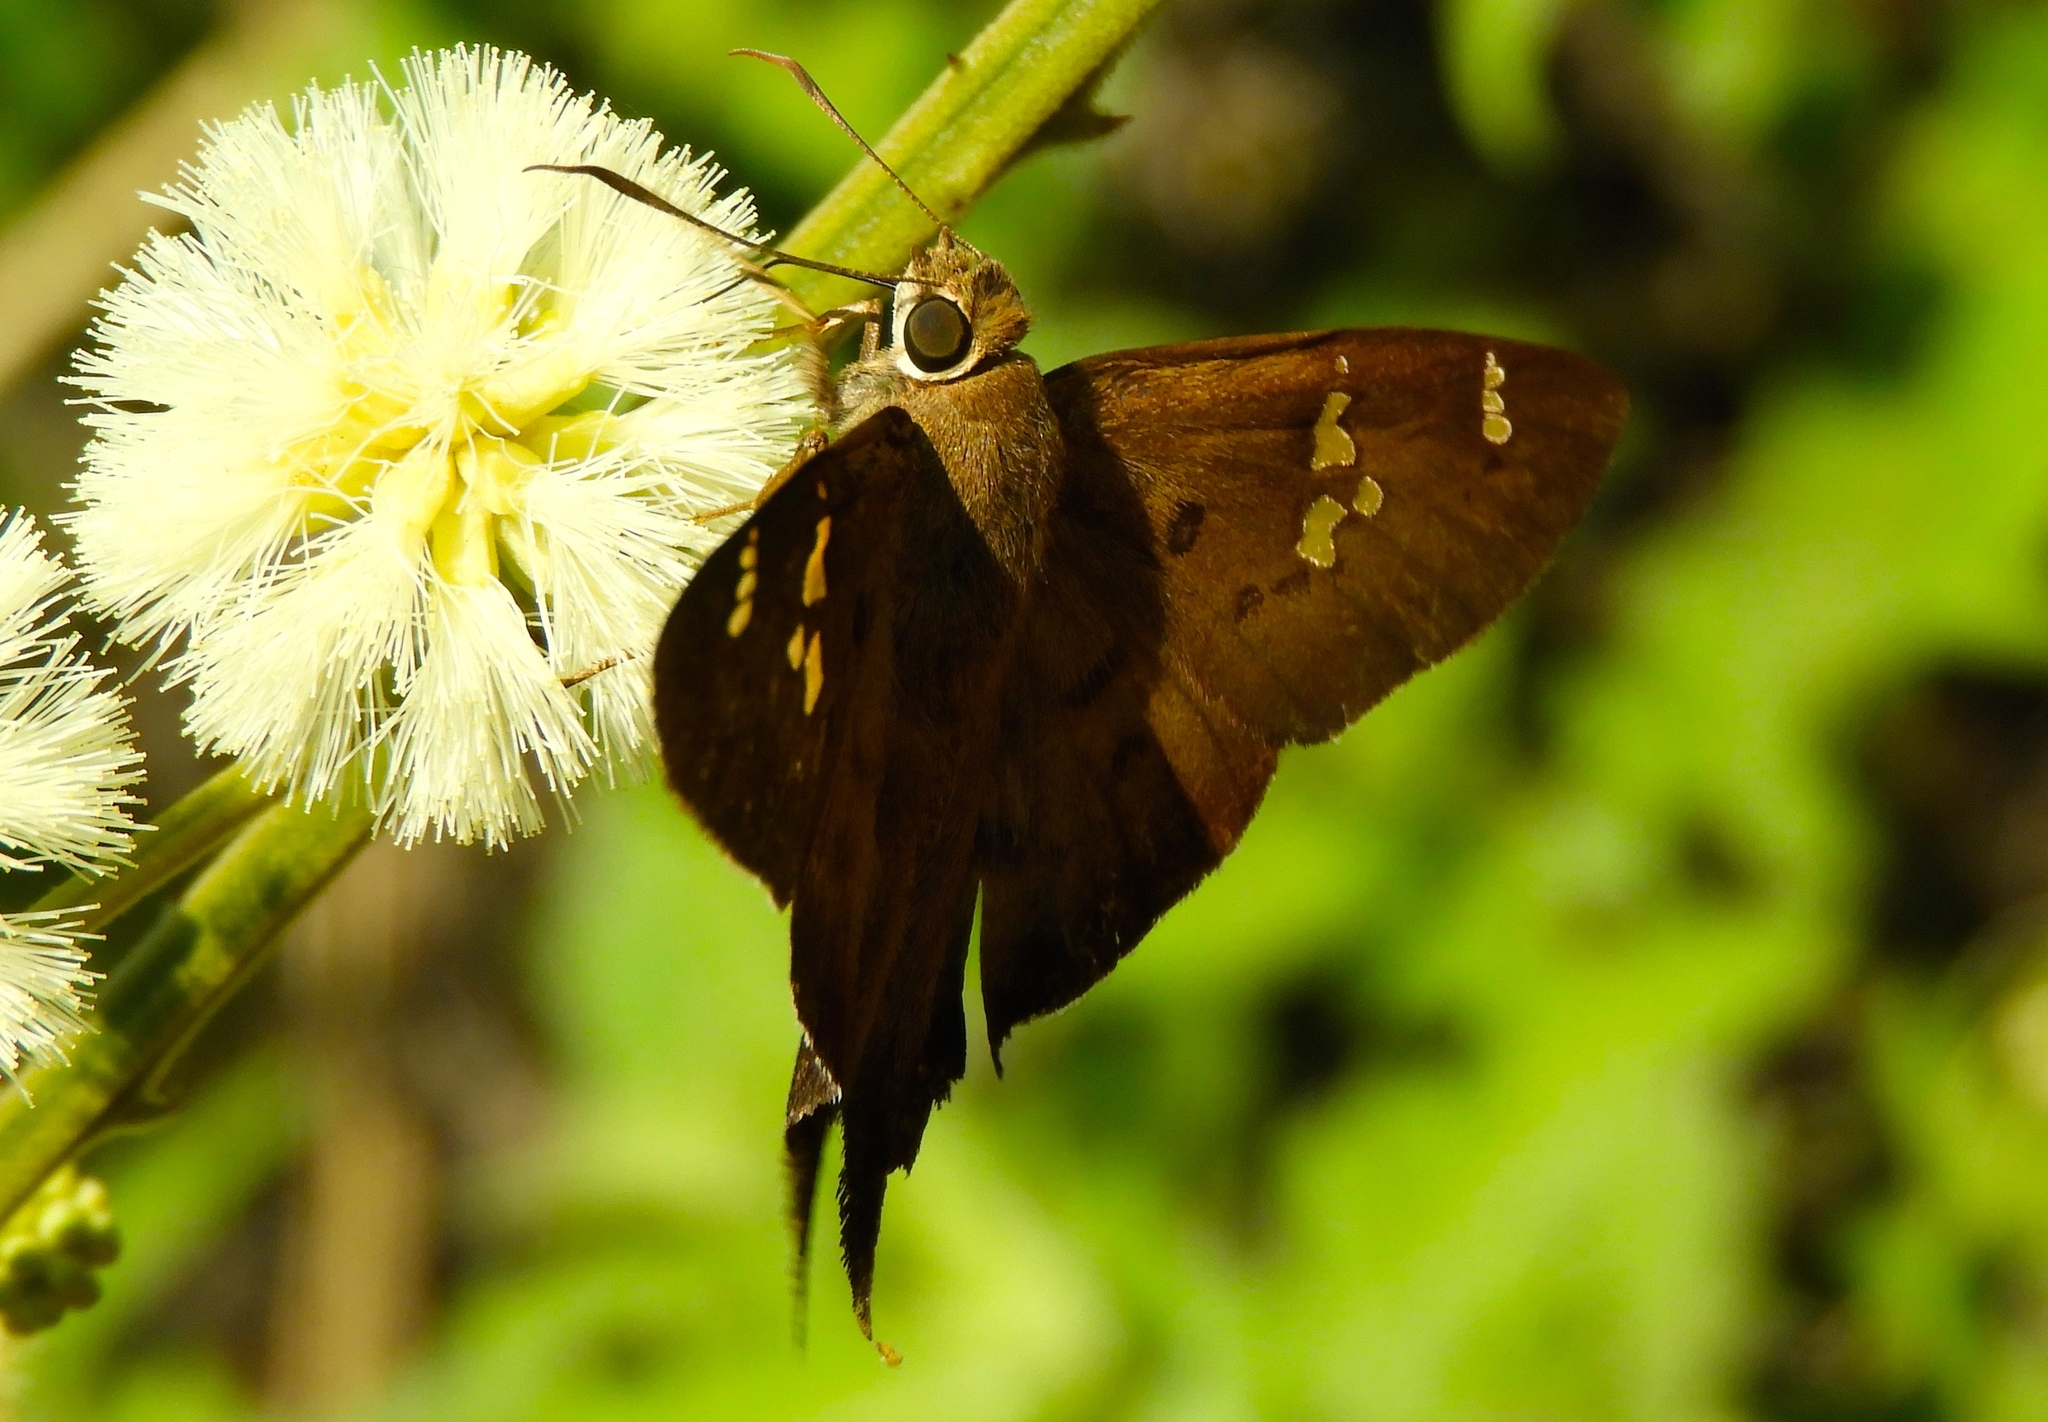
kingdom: Animalia
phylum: Arthropoda
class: Insecta
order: Lepidoptera
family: Hesperiidae
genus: Ectomis
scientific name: Ectomis
